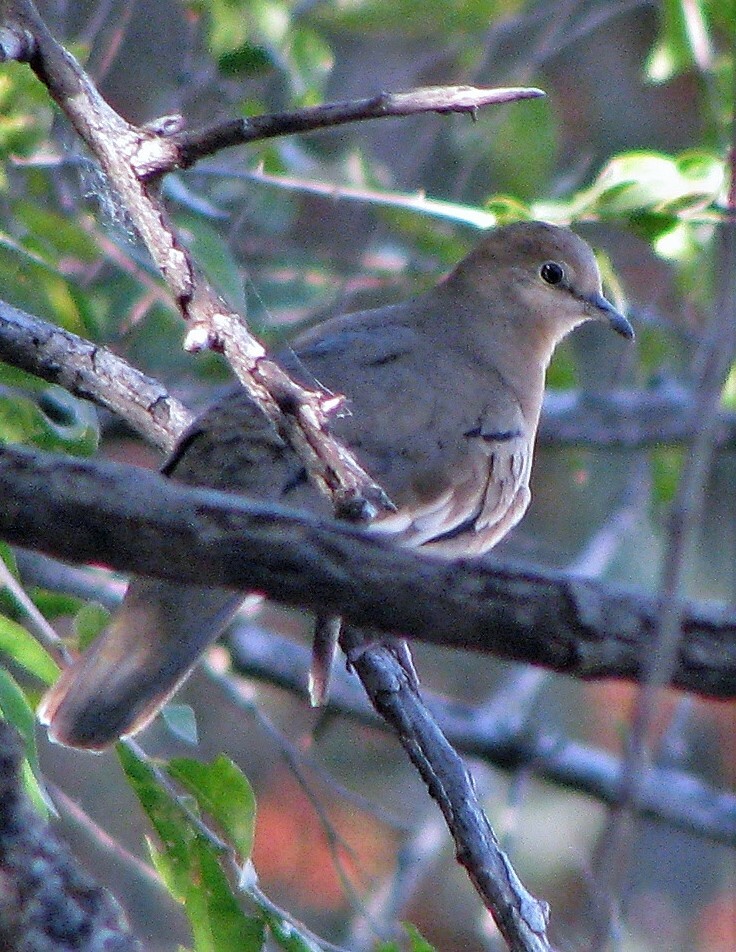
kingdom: Animalia
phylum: Chordata
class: Aves
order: Columbiformes
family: Columbidae
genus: Columbina
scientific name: Columbina picui
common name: Picui ground dove
